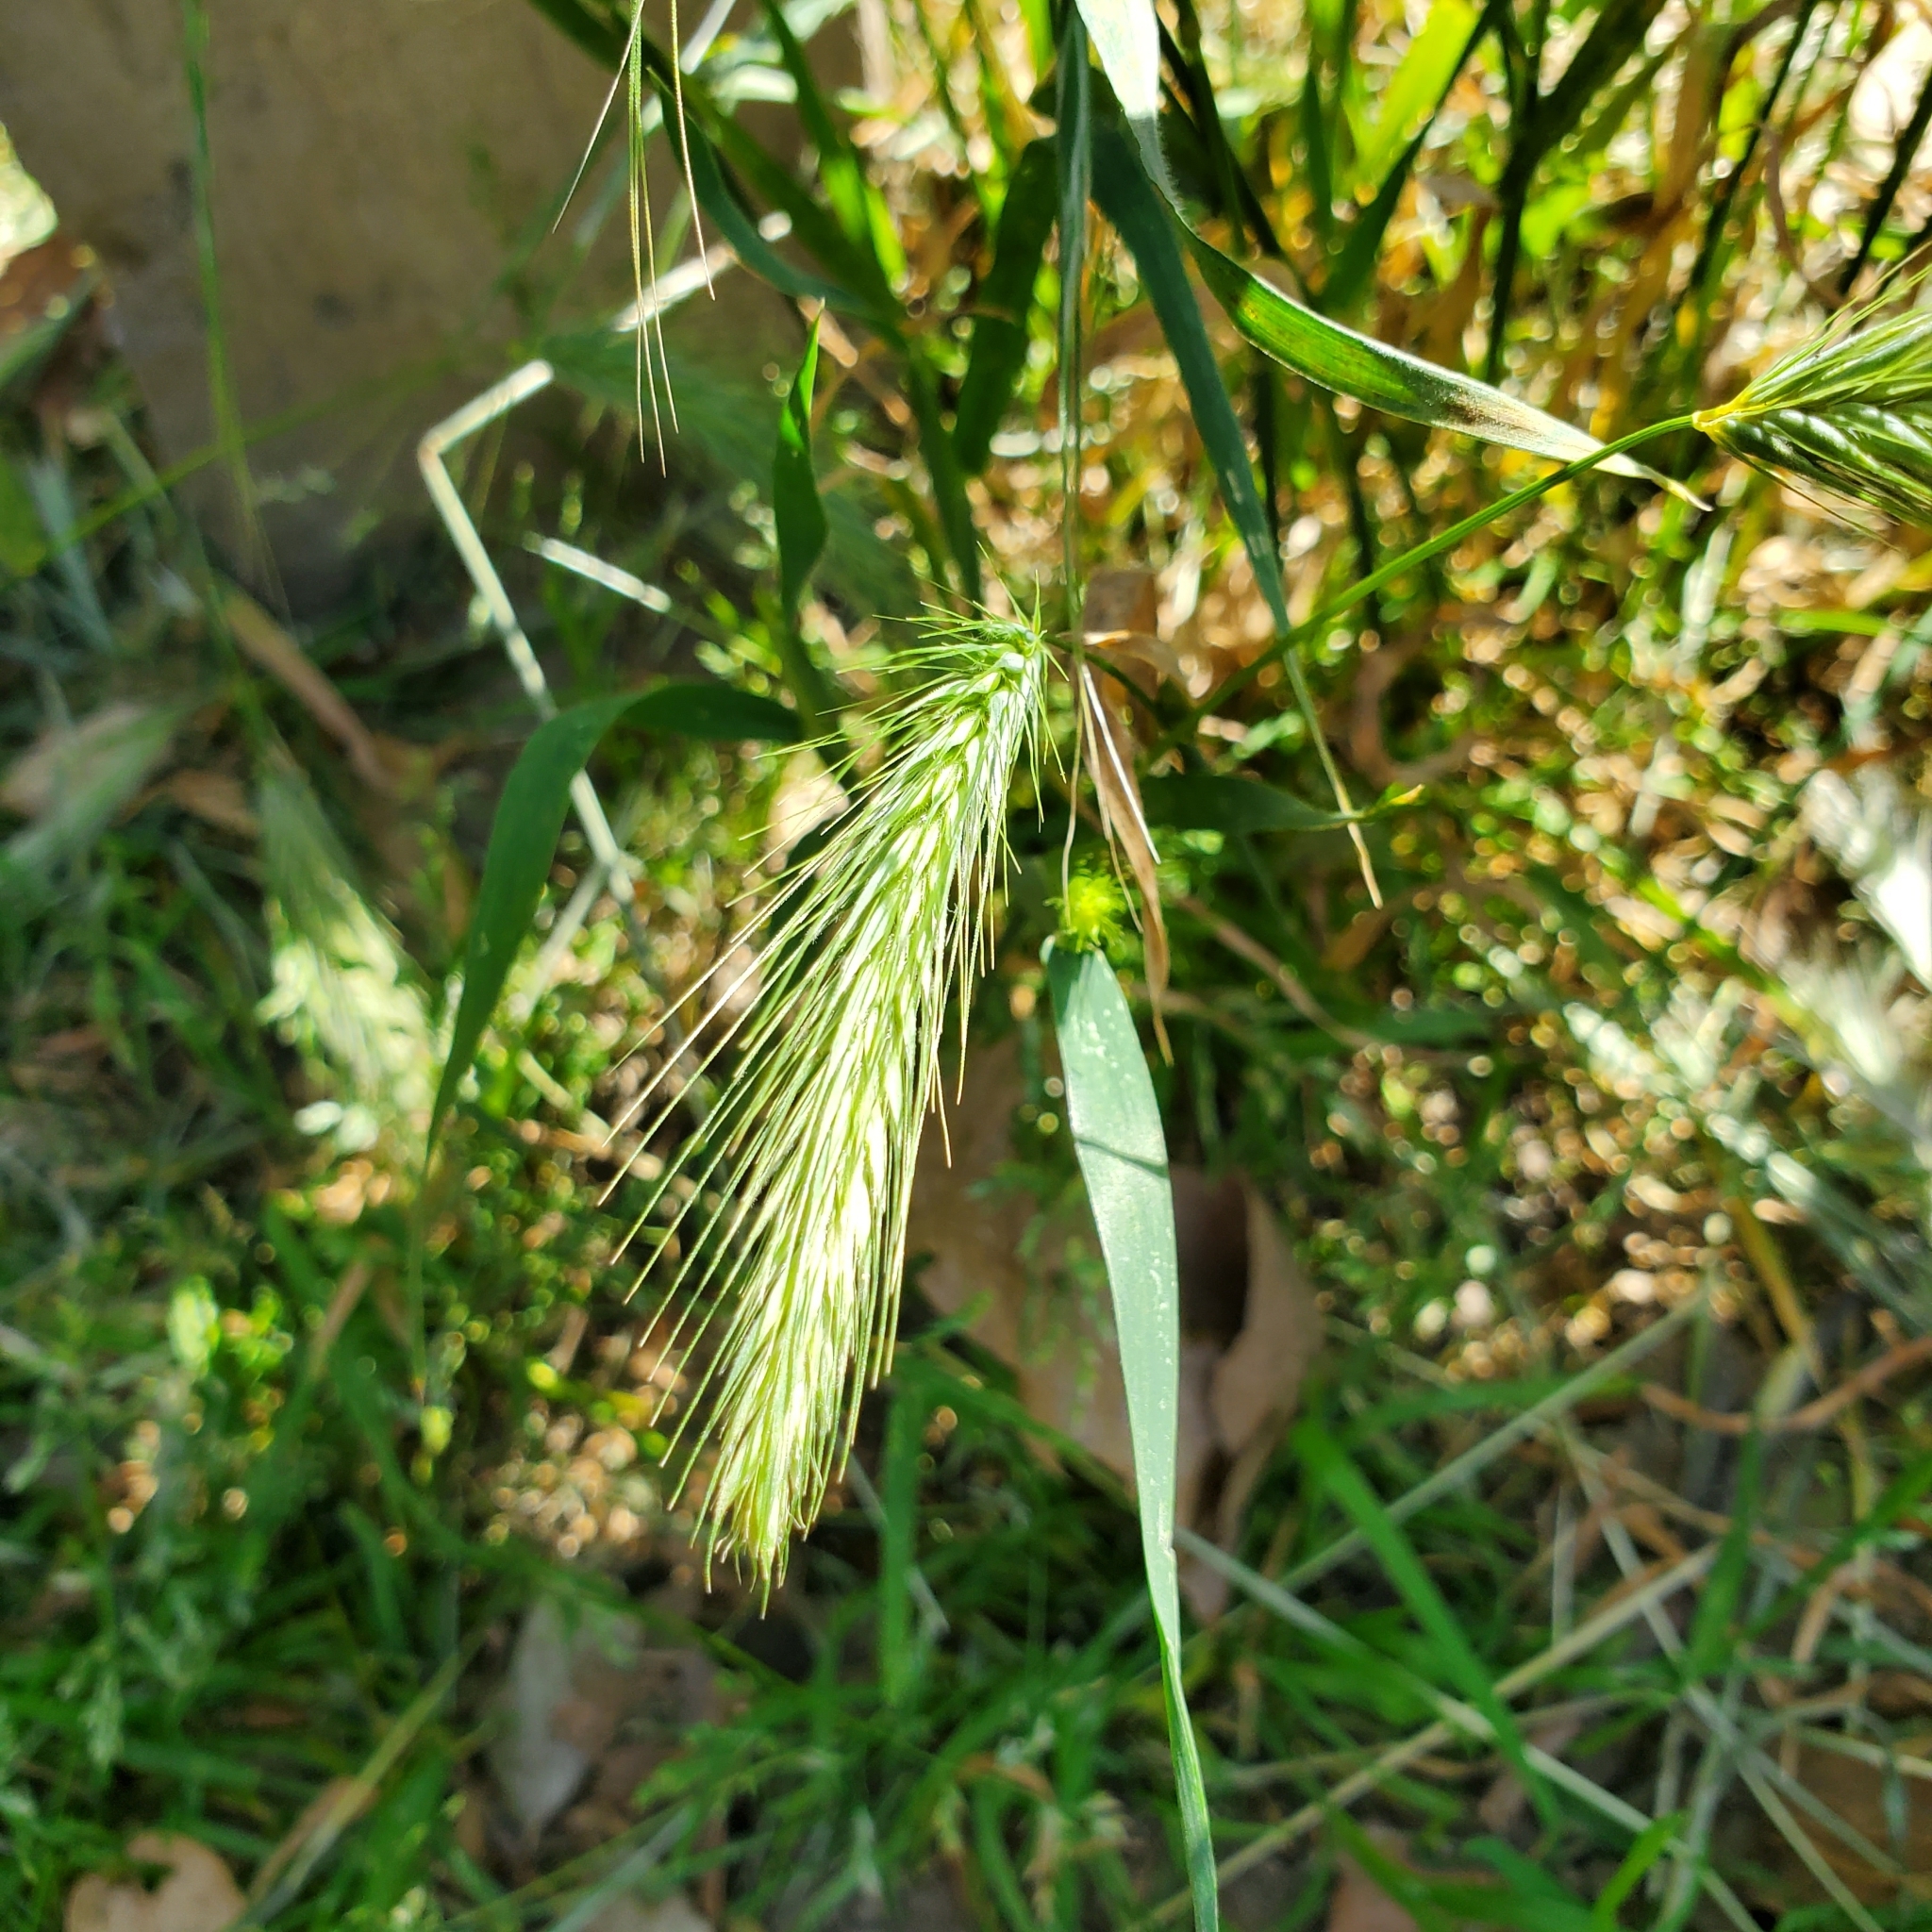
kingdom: Plantae
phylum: Tracheophyta
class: Liliopsida
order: Poales
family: Poaceae
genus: Hordeum
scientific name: Hordeum murinum
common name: Wall barley
